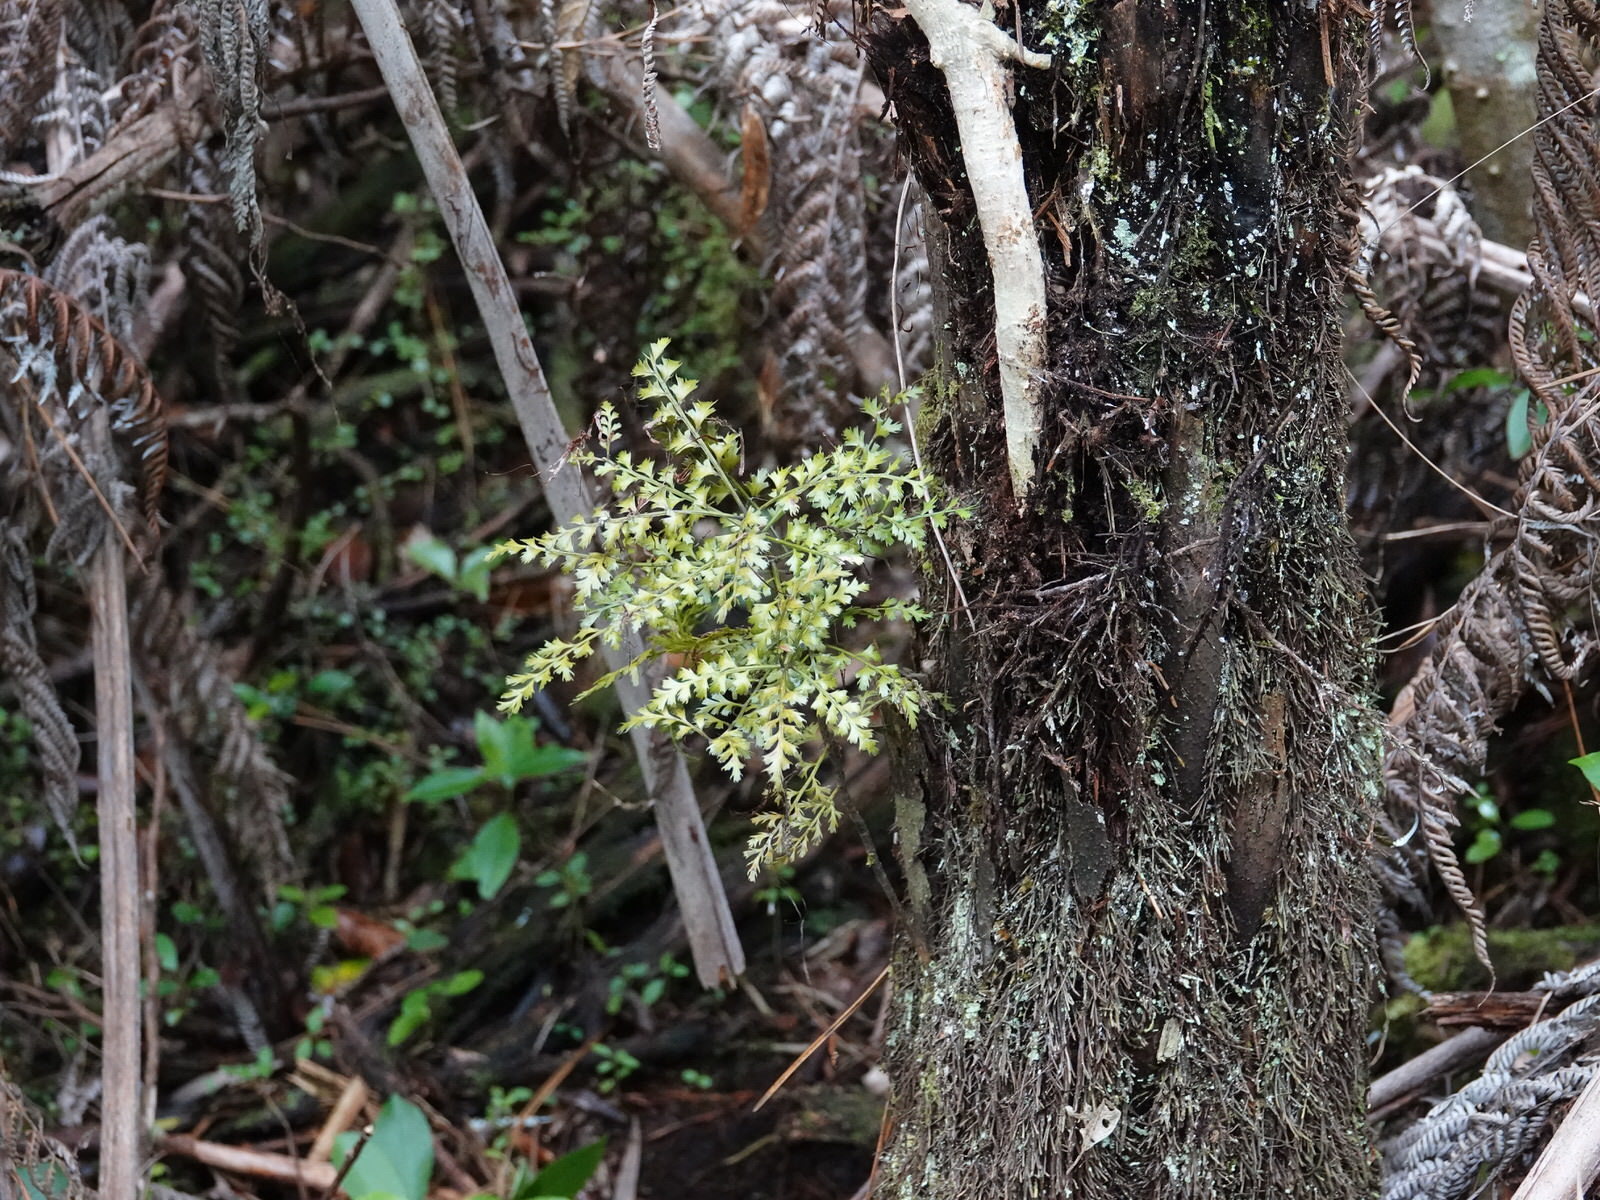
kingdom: Plantae
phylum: Tracheophyta
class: Pinopsida
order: Pinales
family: Phyllocladaceae
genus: Phyllocladus
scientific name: Phyllocladus trichomanoides
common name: Celery pine
